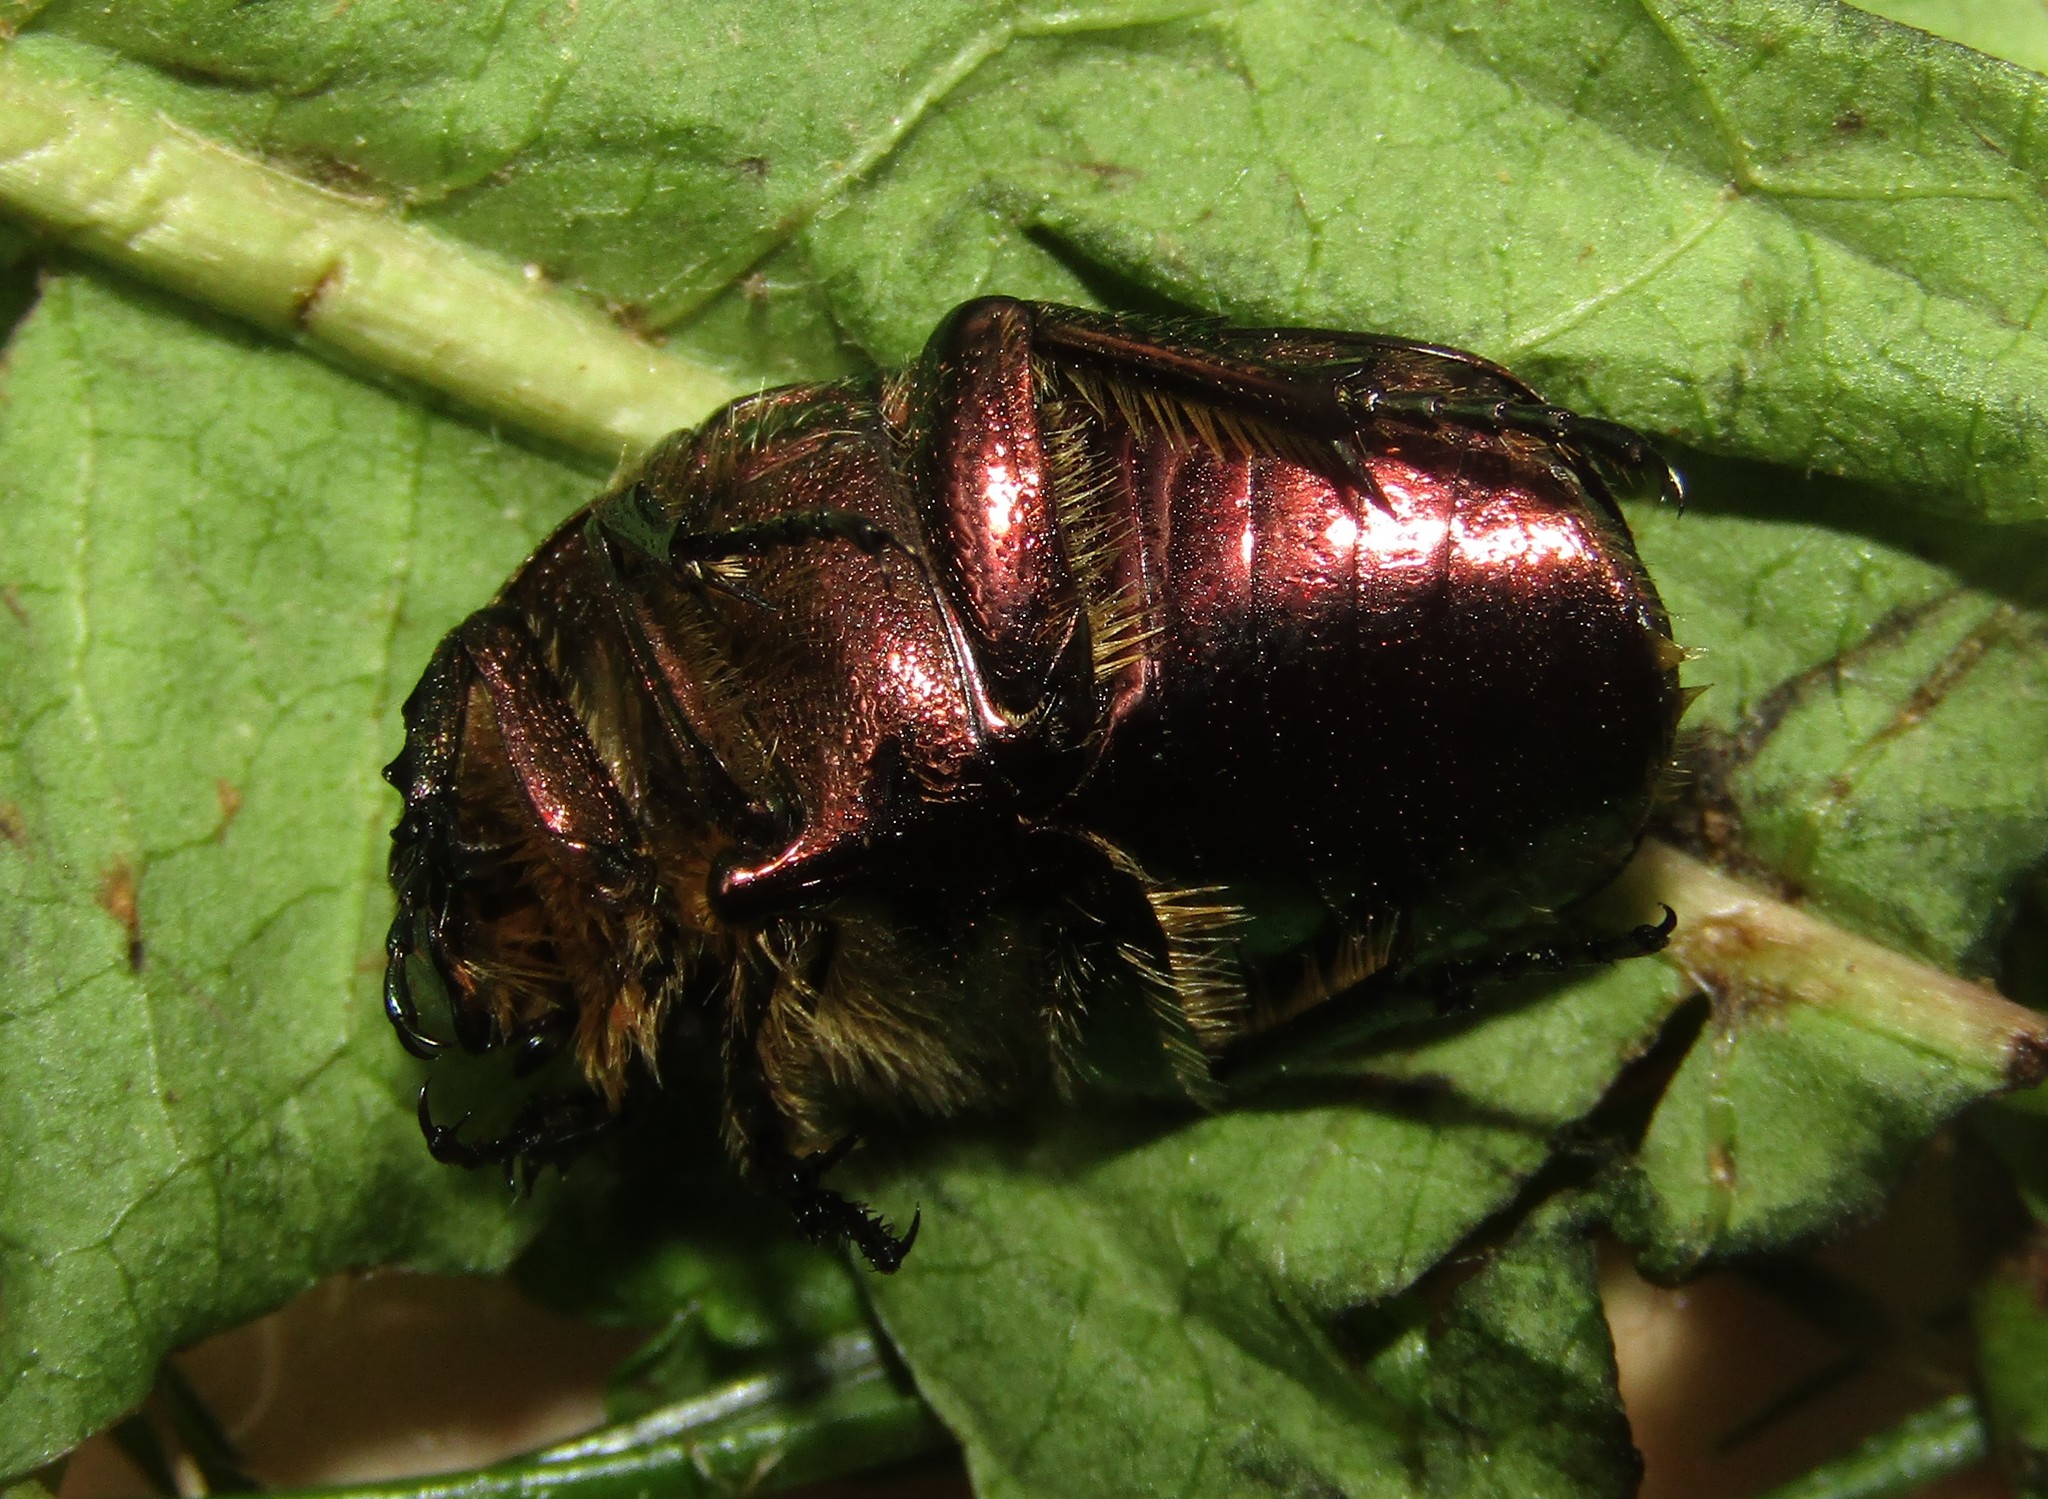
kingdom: Animalia
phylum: Arthropoda
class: Insecta
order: Coleoptera
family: Scarabaeidae
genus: Cetonia
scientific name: Cetonia aurata
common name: Rose chafer
